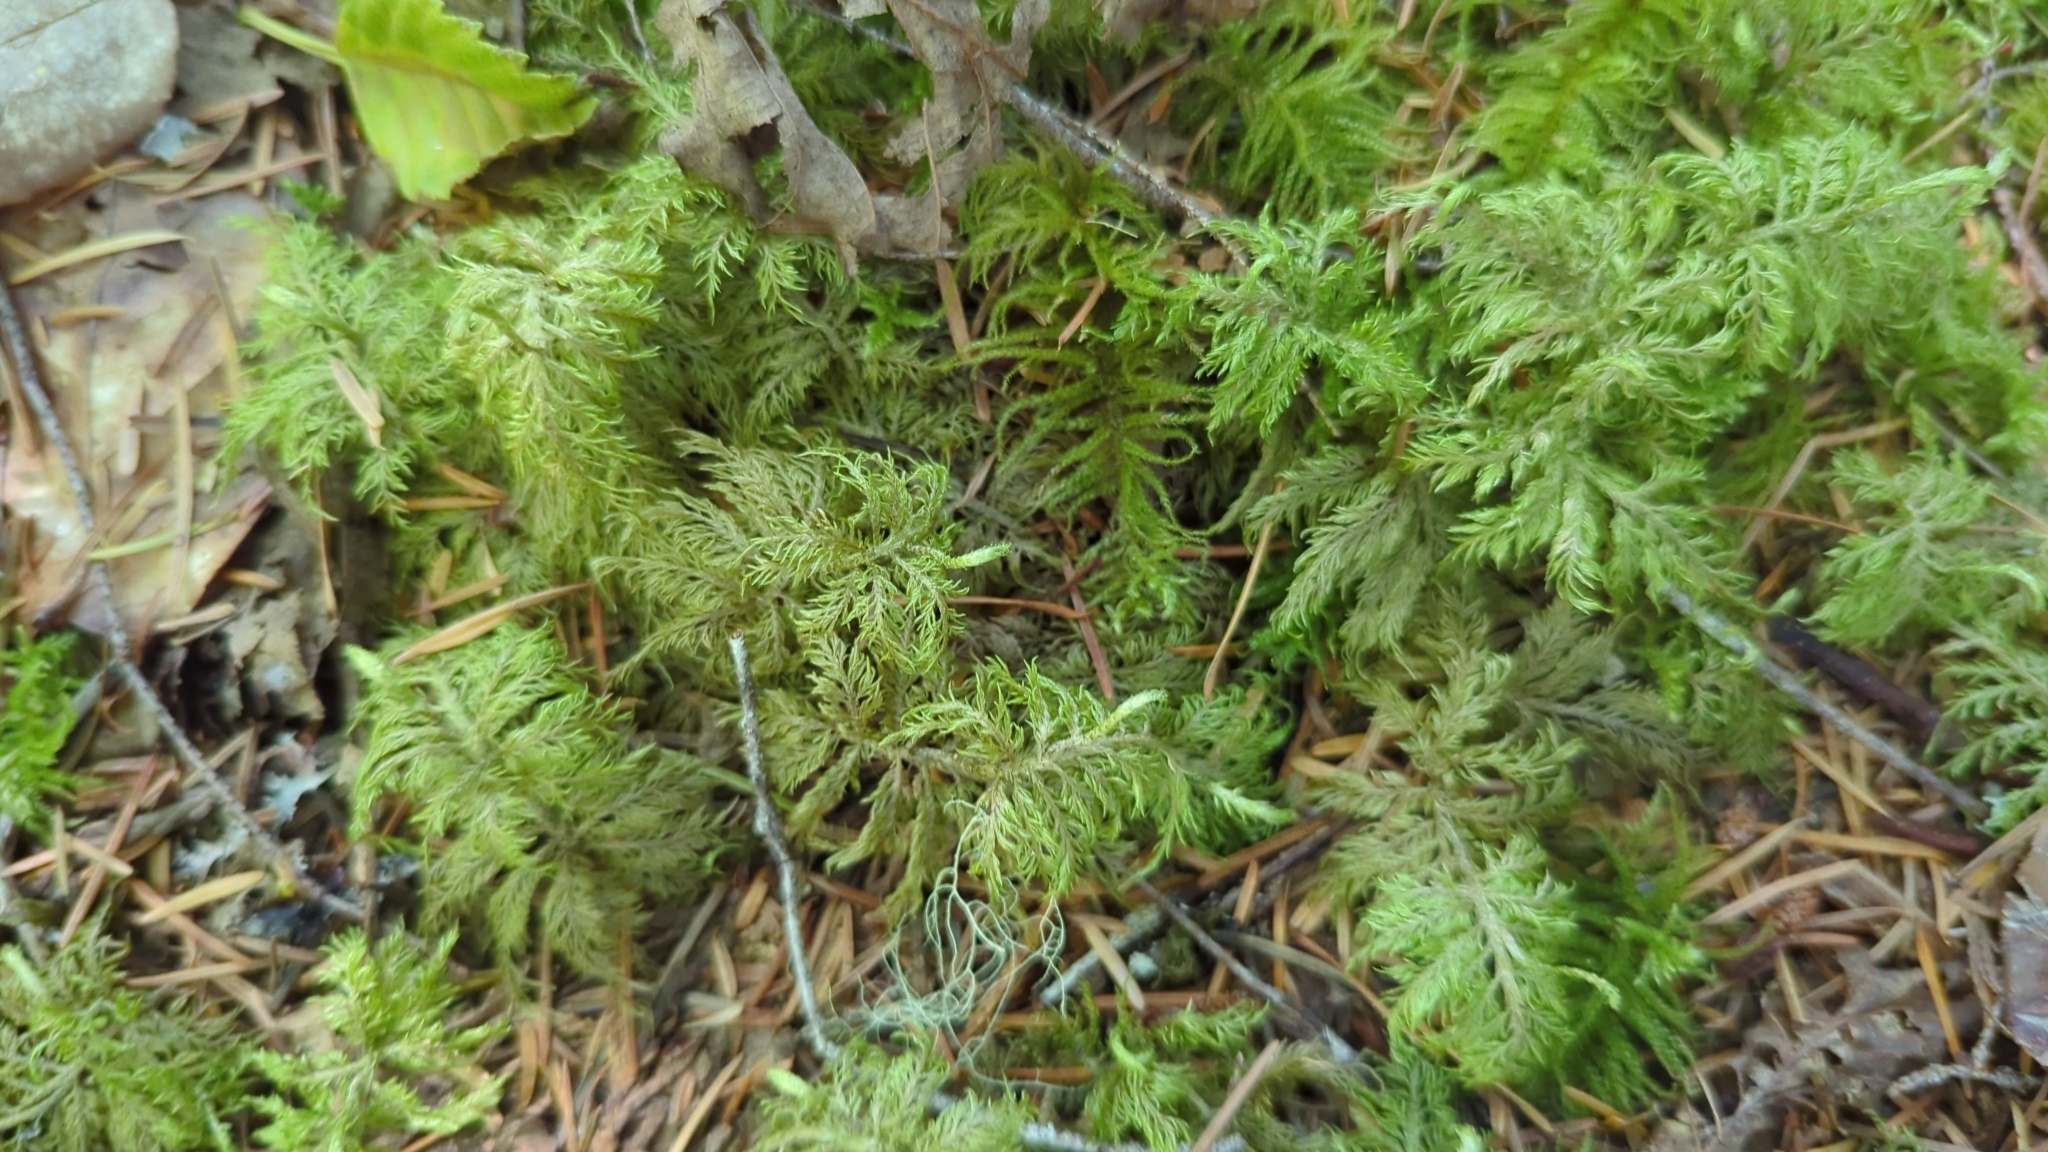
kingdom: Plantae
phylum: Bryophyta
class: Bryopsida
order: Hypnales
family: Hylocomiaceae
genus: Hylocomium
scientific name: Hylocomium splendens
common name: Stairstep moss
